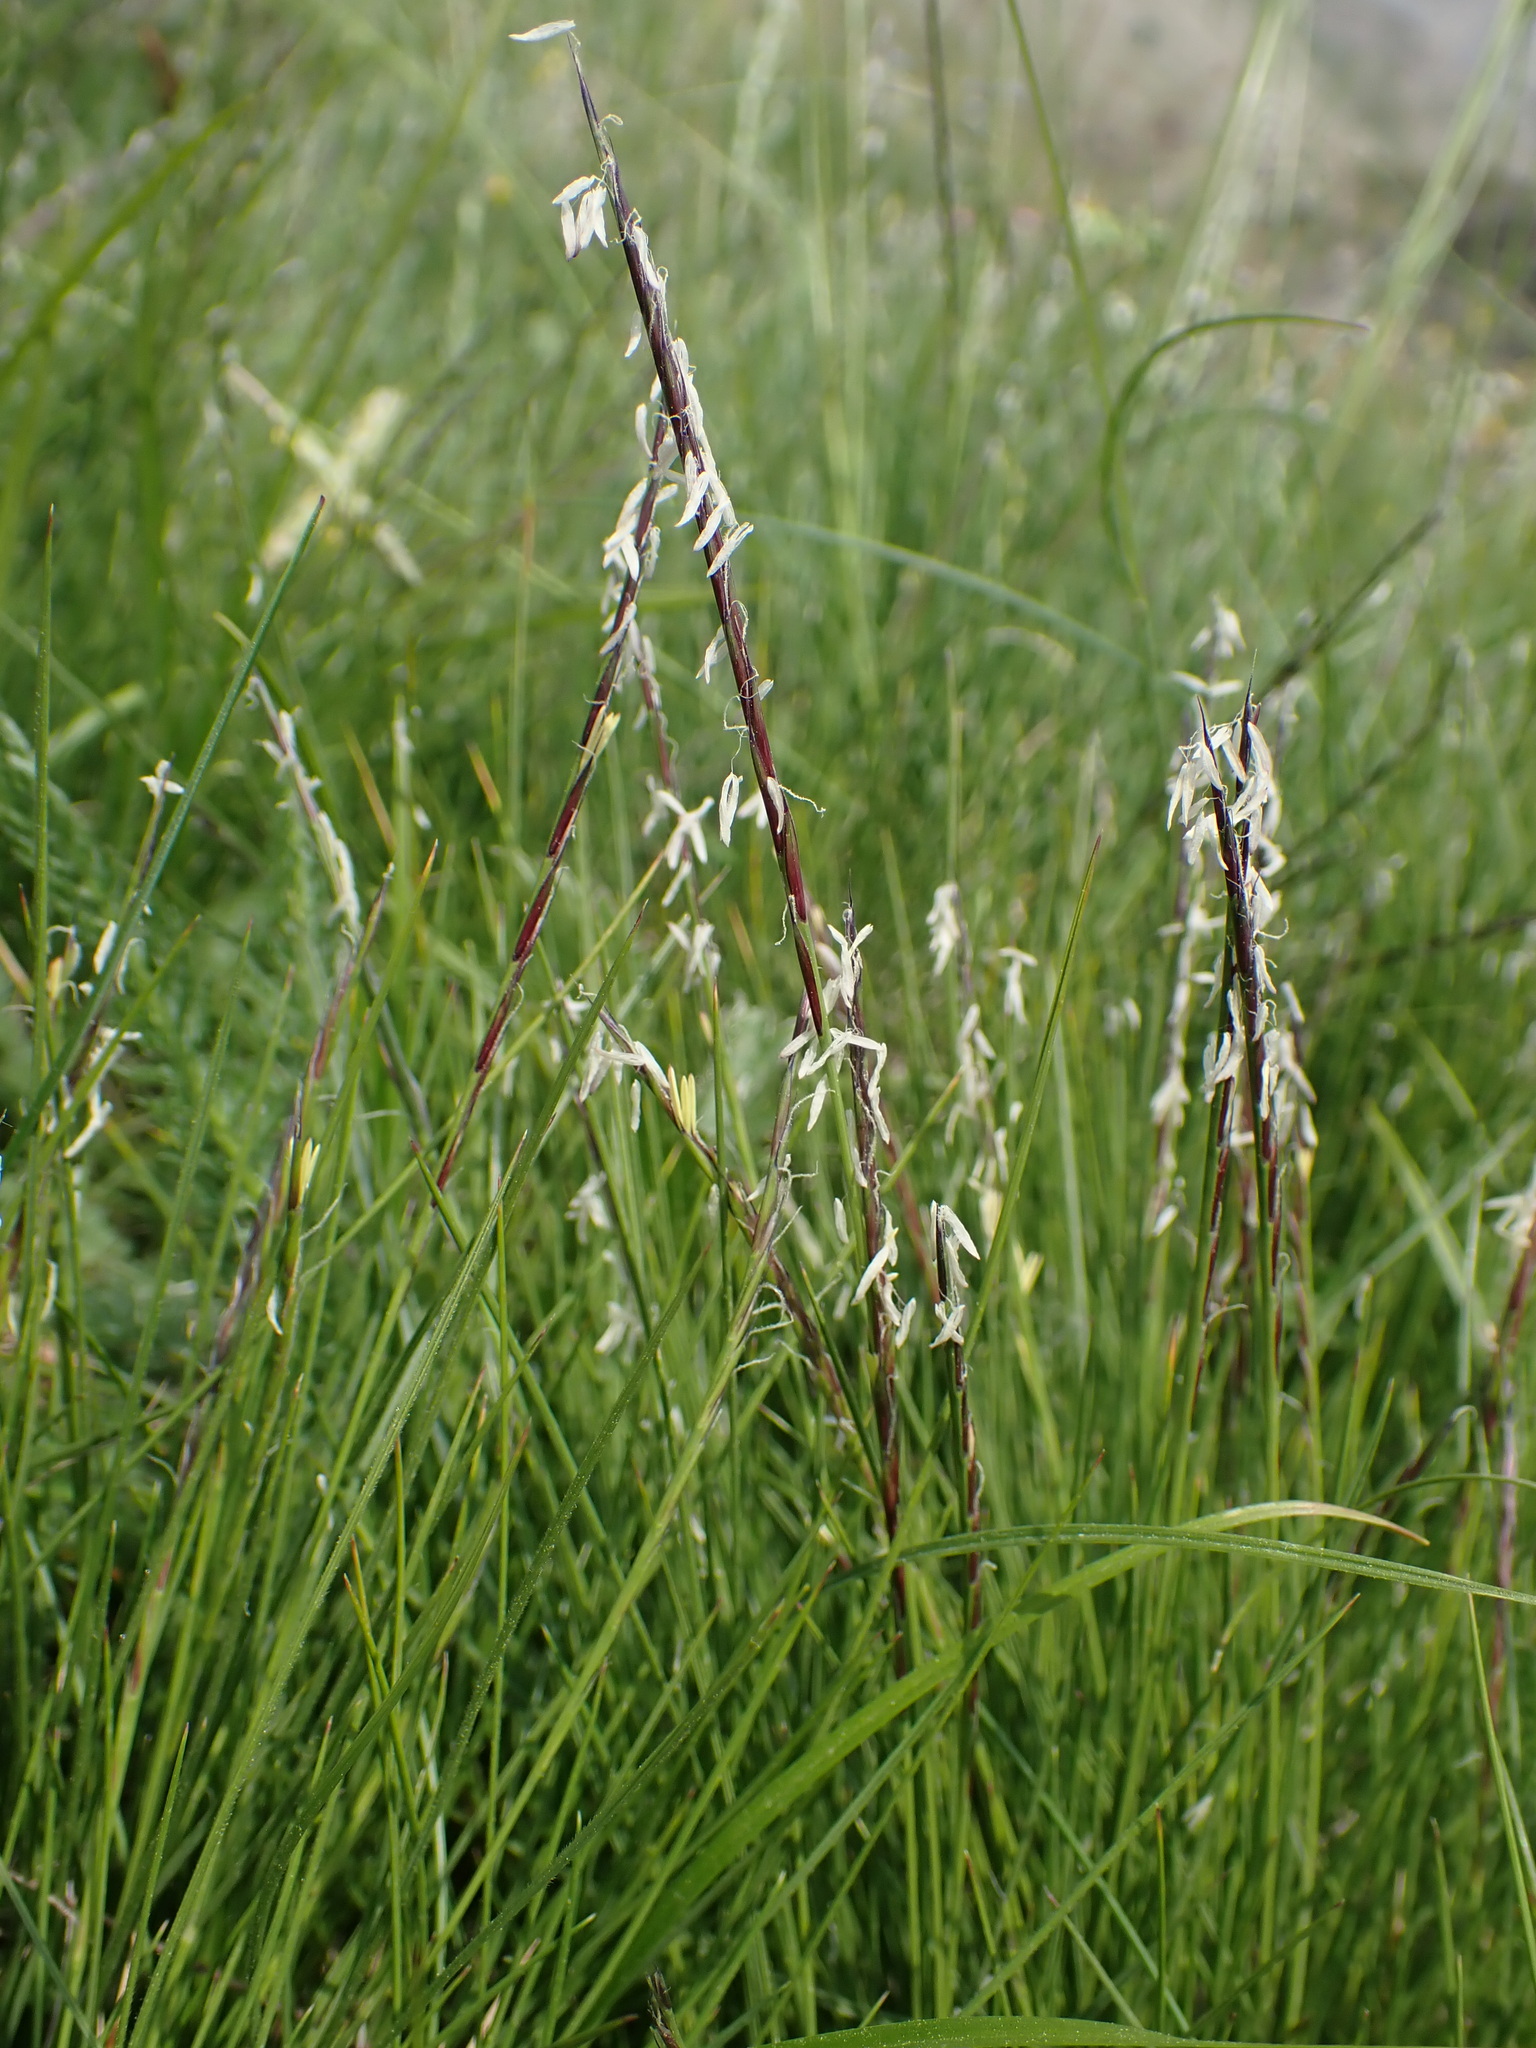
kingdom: Plantae
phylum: Tracheophyta
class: Liliopsida
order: Poales
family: Poaceae
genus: Nardus
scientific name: Nardus stricta
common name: Mat-grass
